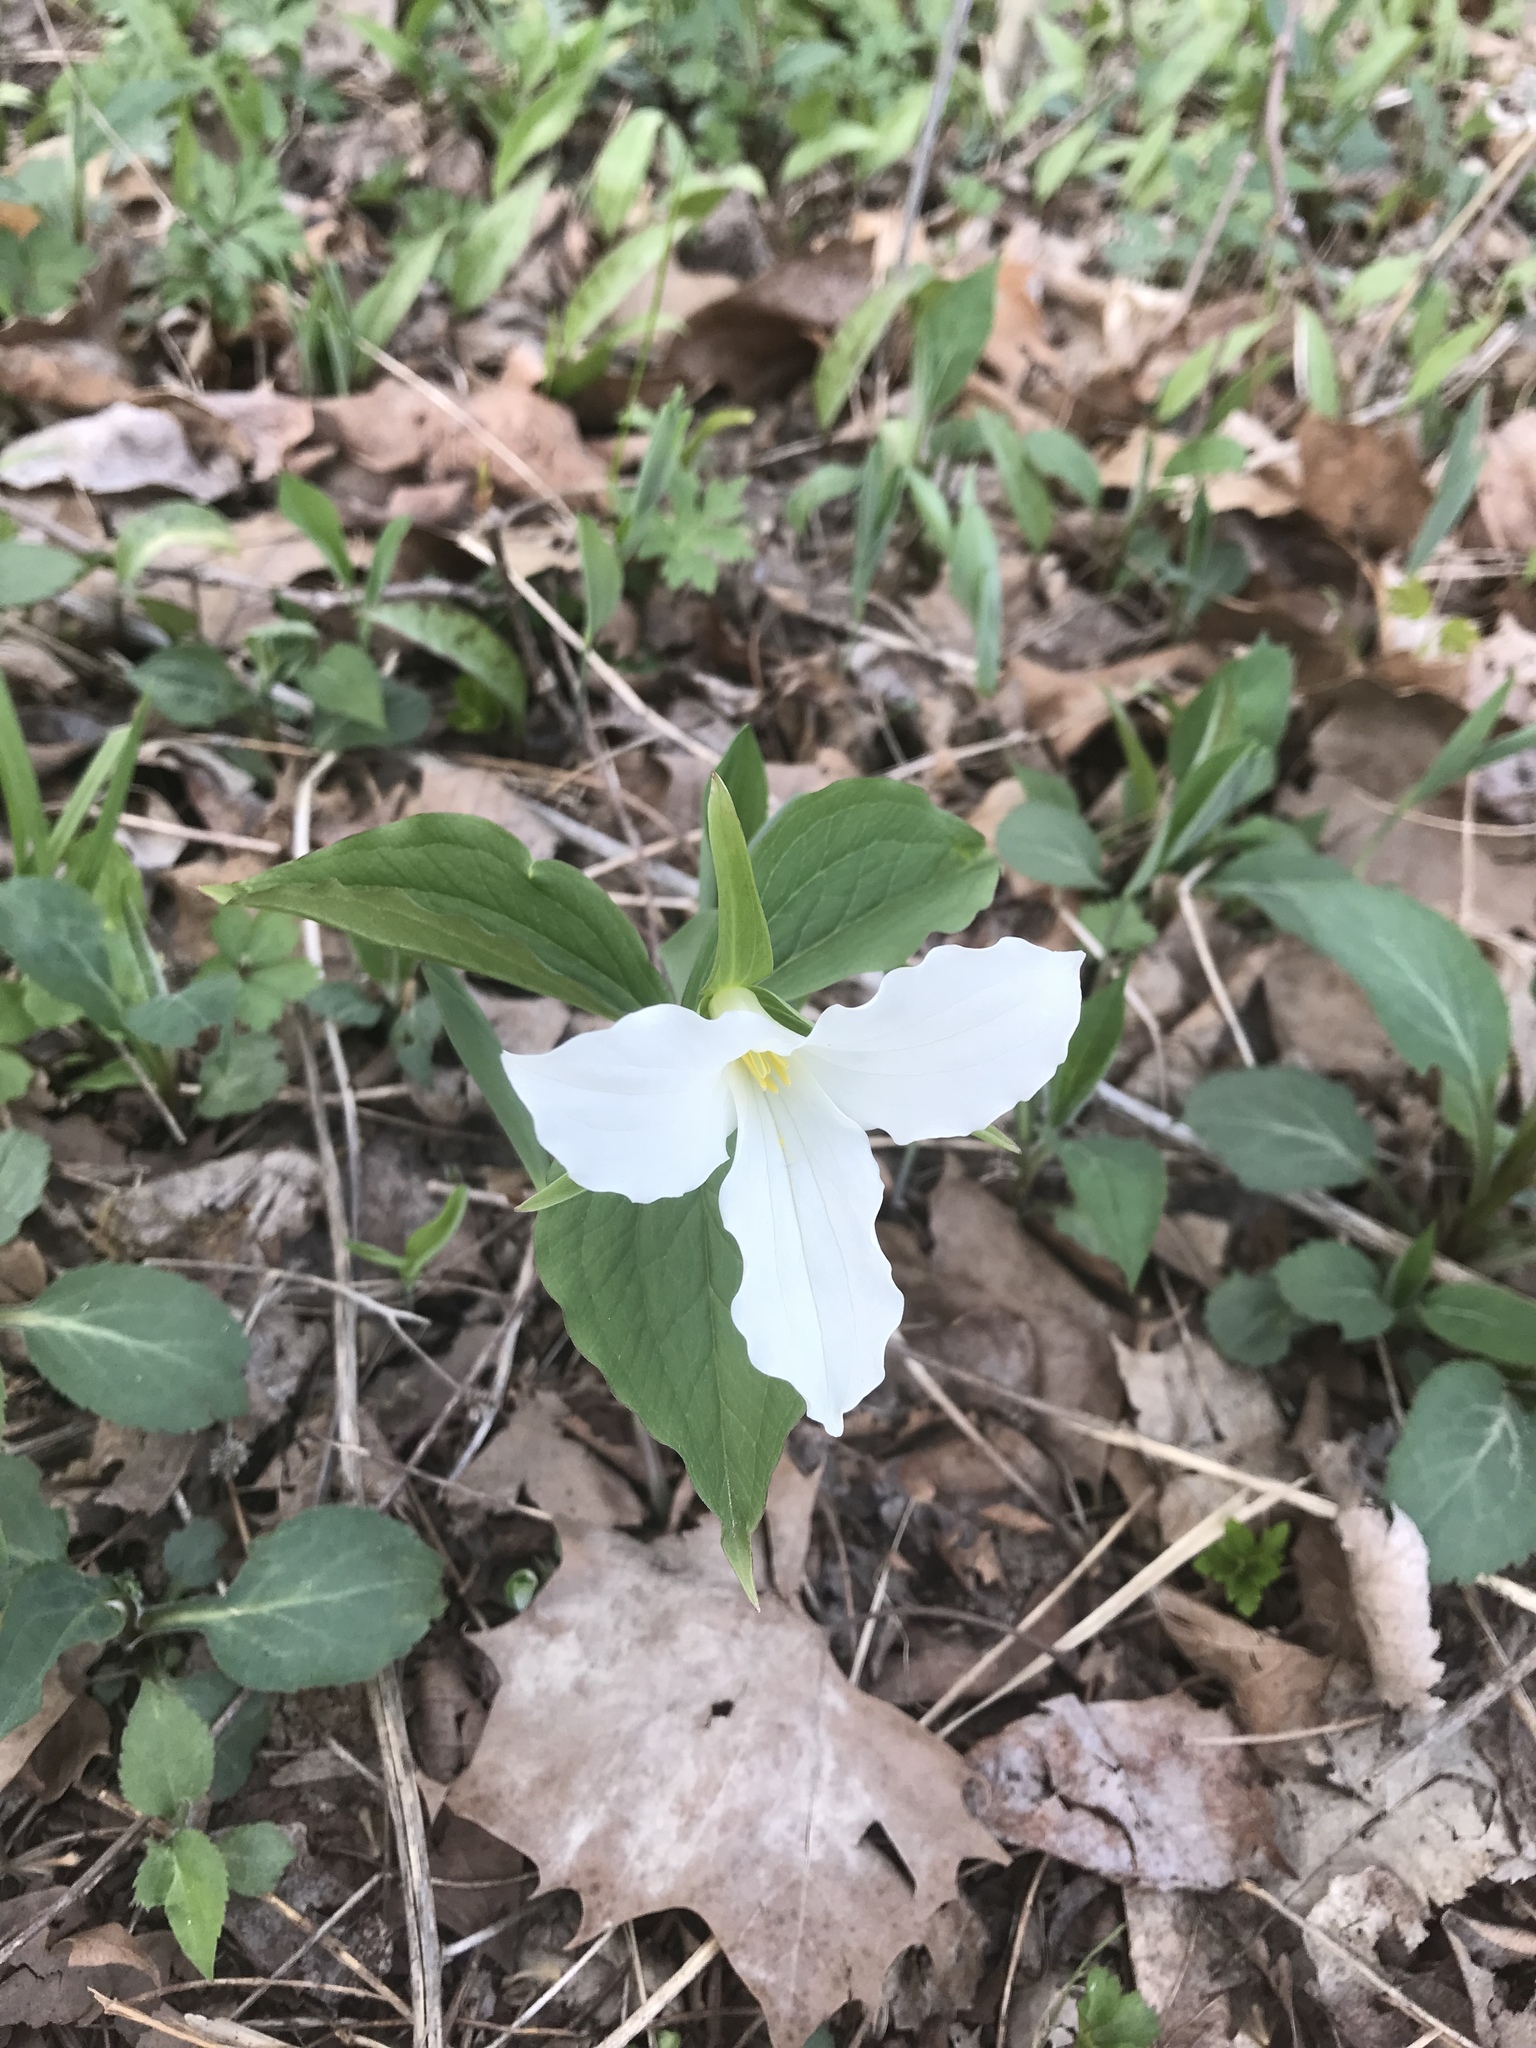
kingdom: Plantae
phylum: Tracheophyta
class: Liliopsida
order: Liliales
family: Melanthiaceae
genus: Trillium
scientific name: Trillium grandiflorum
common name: Great white trillium
